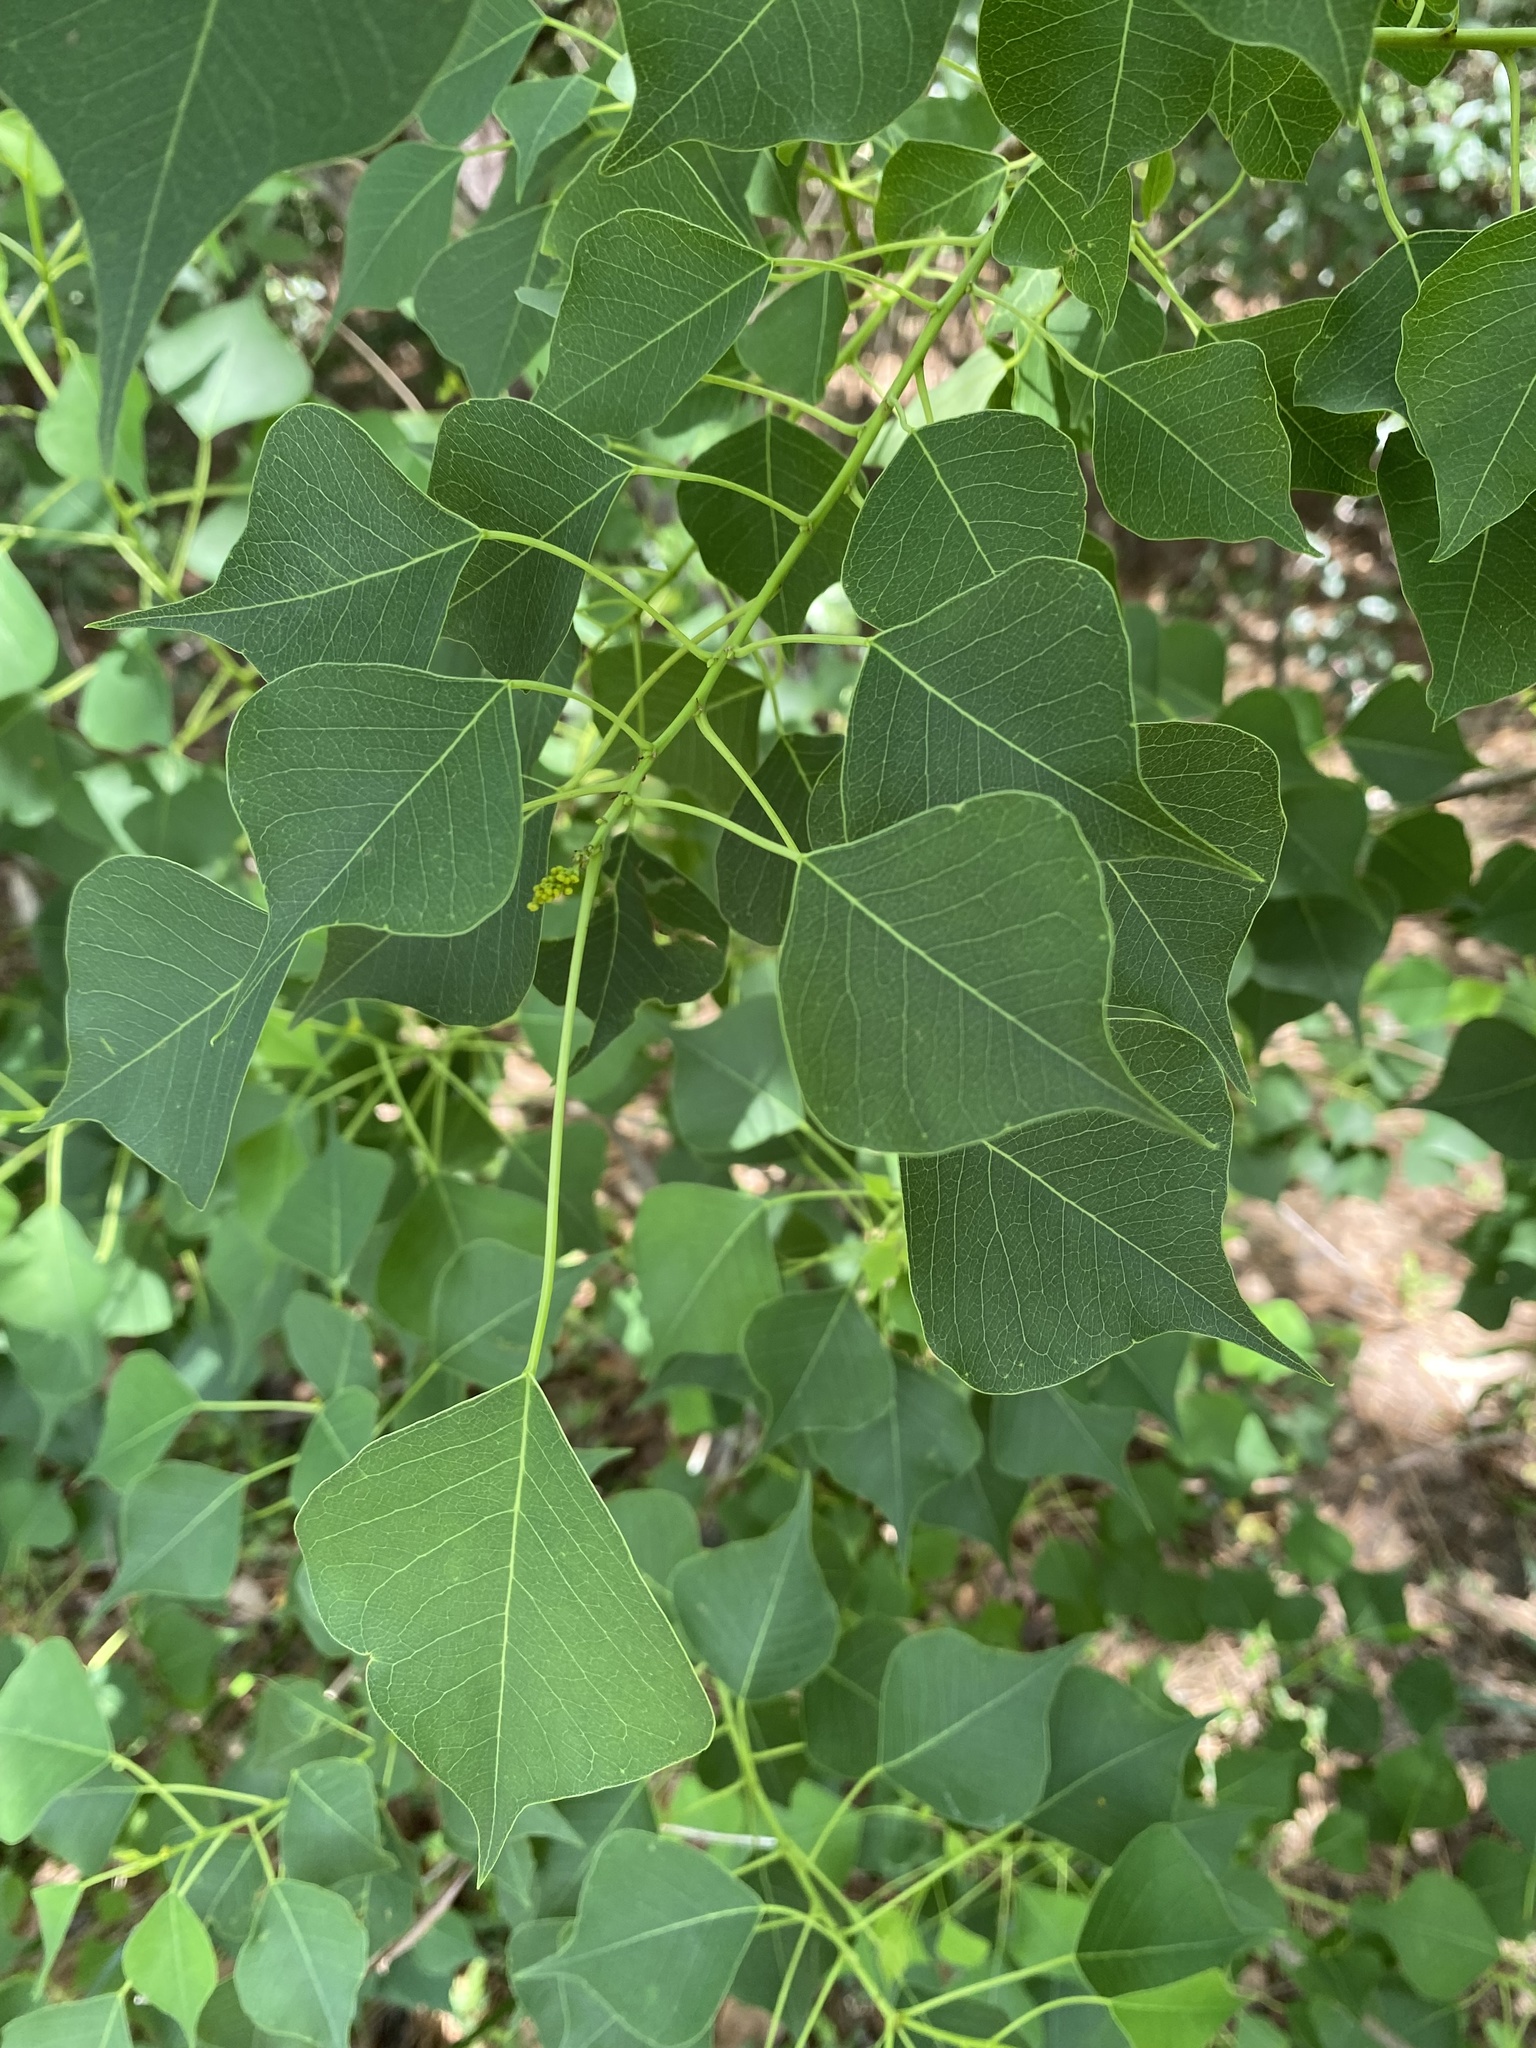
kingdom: Plantae
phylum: Tracheophyta
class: Magnoliopsida
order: Malpighiales
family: Euphorbiaceae
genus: Triadica
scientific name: Triadica sebifera
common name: Chinese tallow
